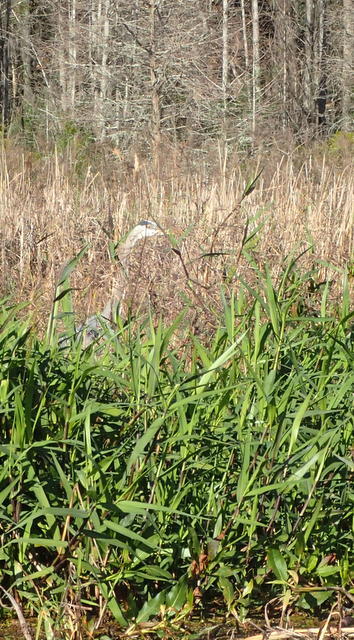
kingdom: Animalia
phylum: Chordata
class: Aves
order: Pelecaniformes
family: Ardeidae
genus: Ardea
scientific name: Ardea herodias
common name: Great blue heron
